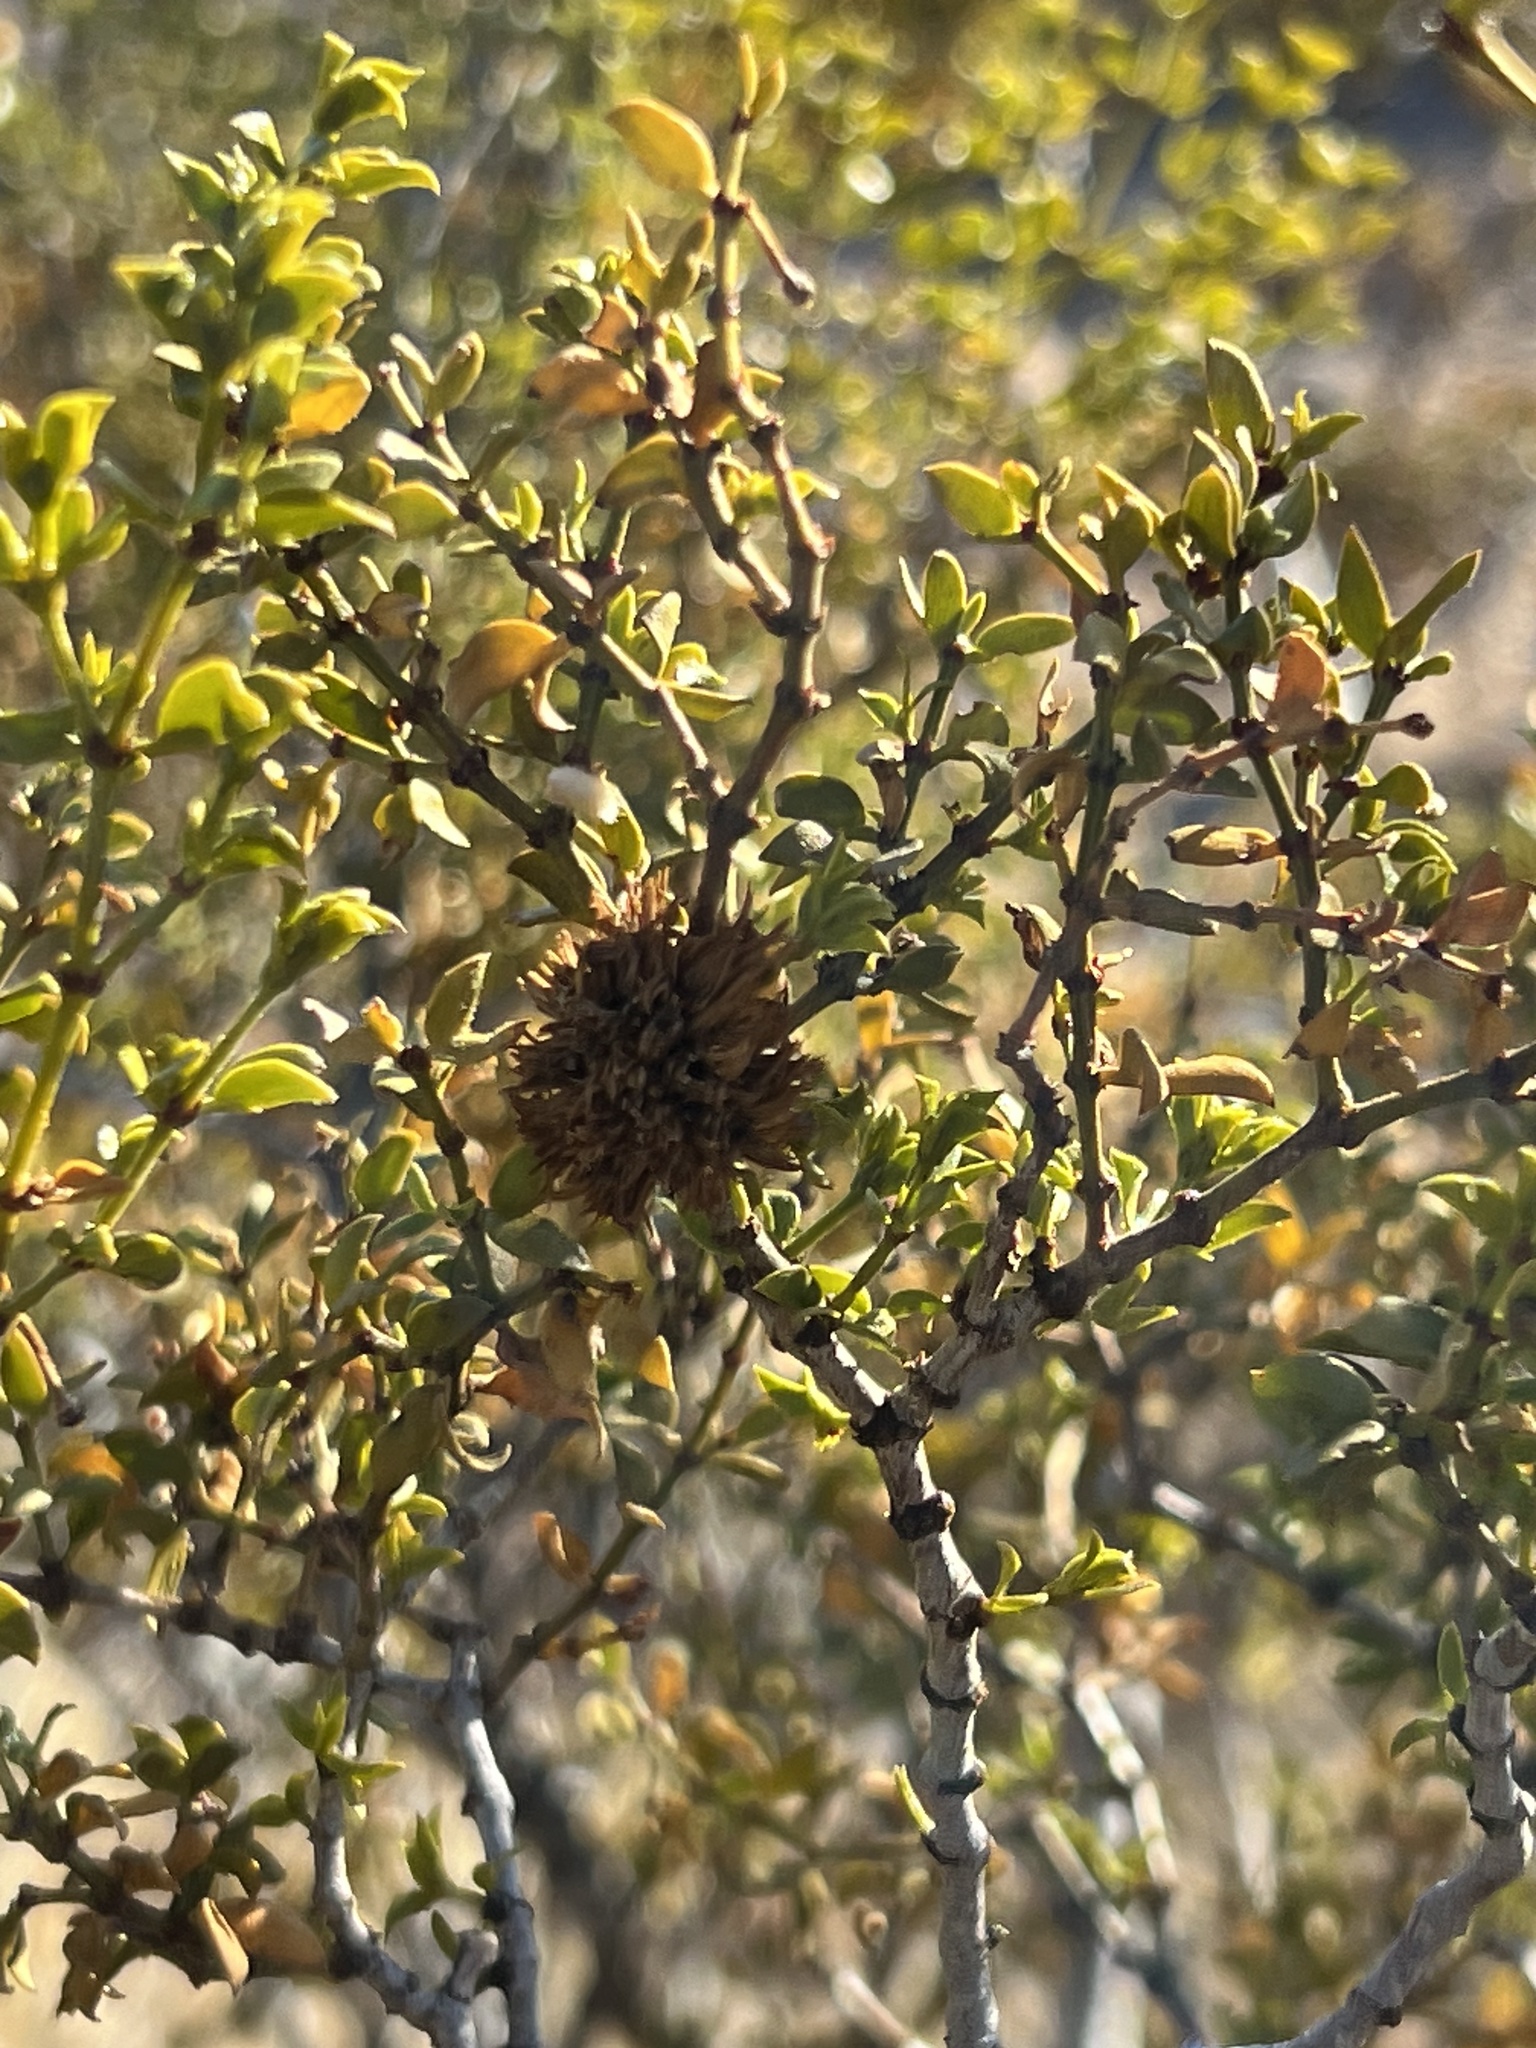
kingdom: Animalia
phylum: Arthropoda
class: Insecta
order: Diptera
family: Cecidomyiidae
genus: Asphondylia
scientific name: Asphondylia auripila
